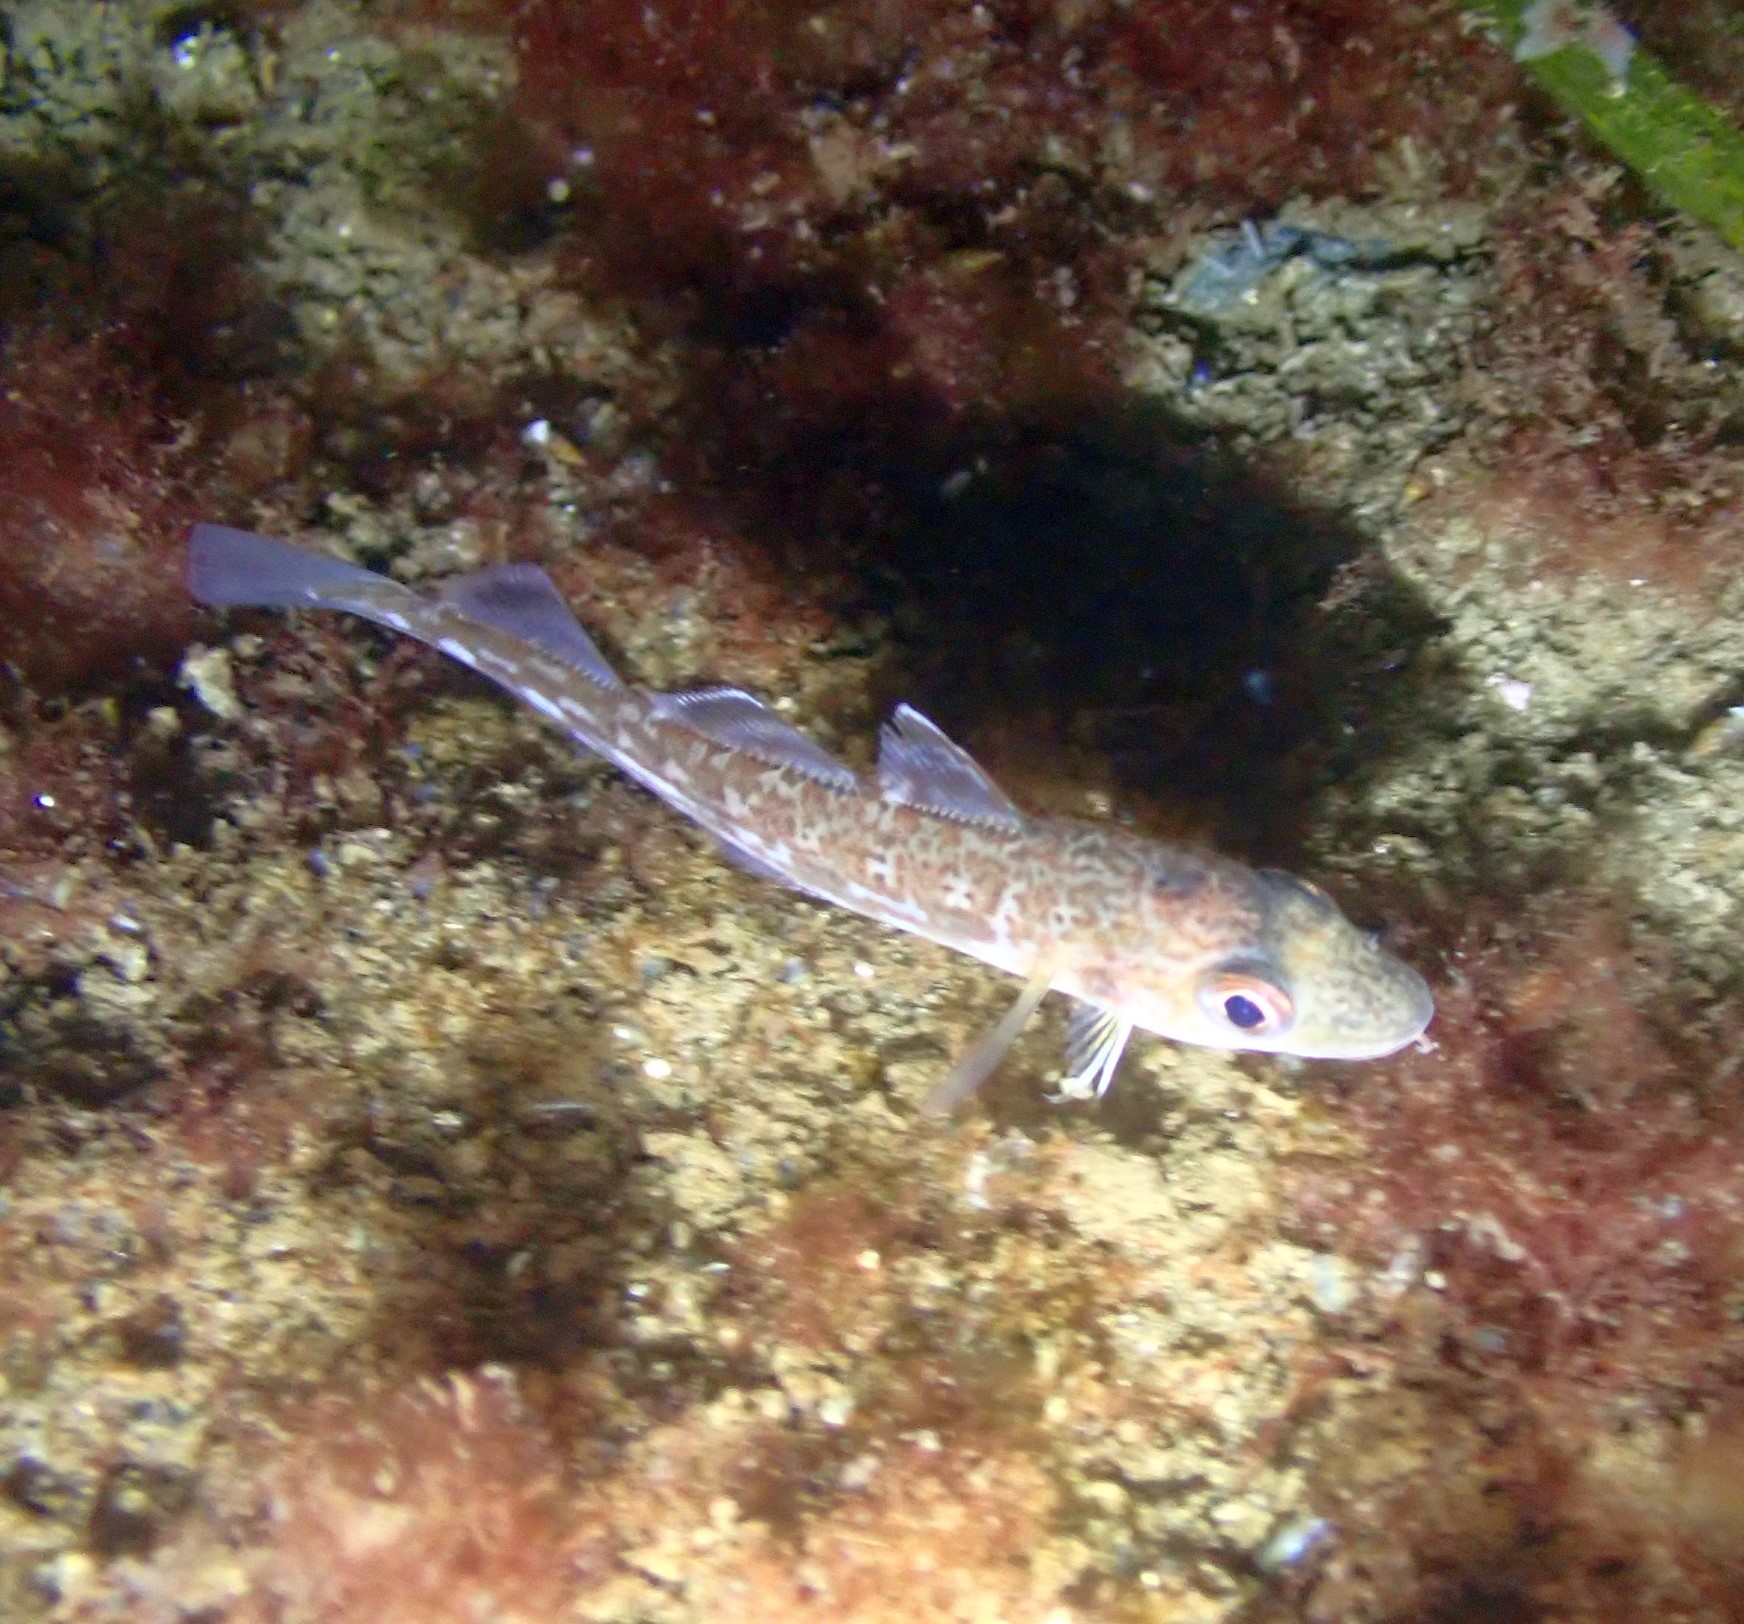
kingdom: Animalia
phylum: Chordata
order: Gadiformes
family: Gadidae
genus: Gadus
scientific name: Gadus morhua
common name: Atlantic cod
